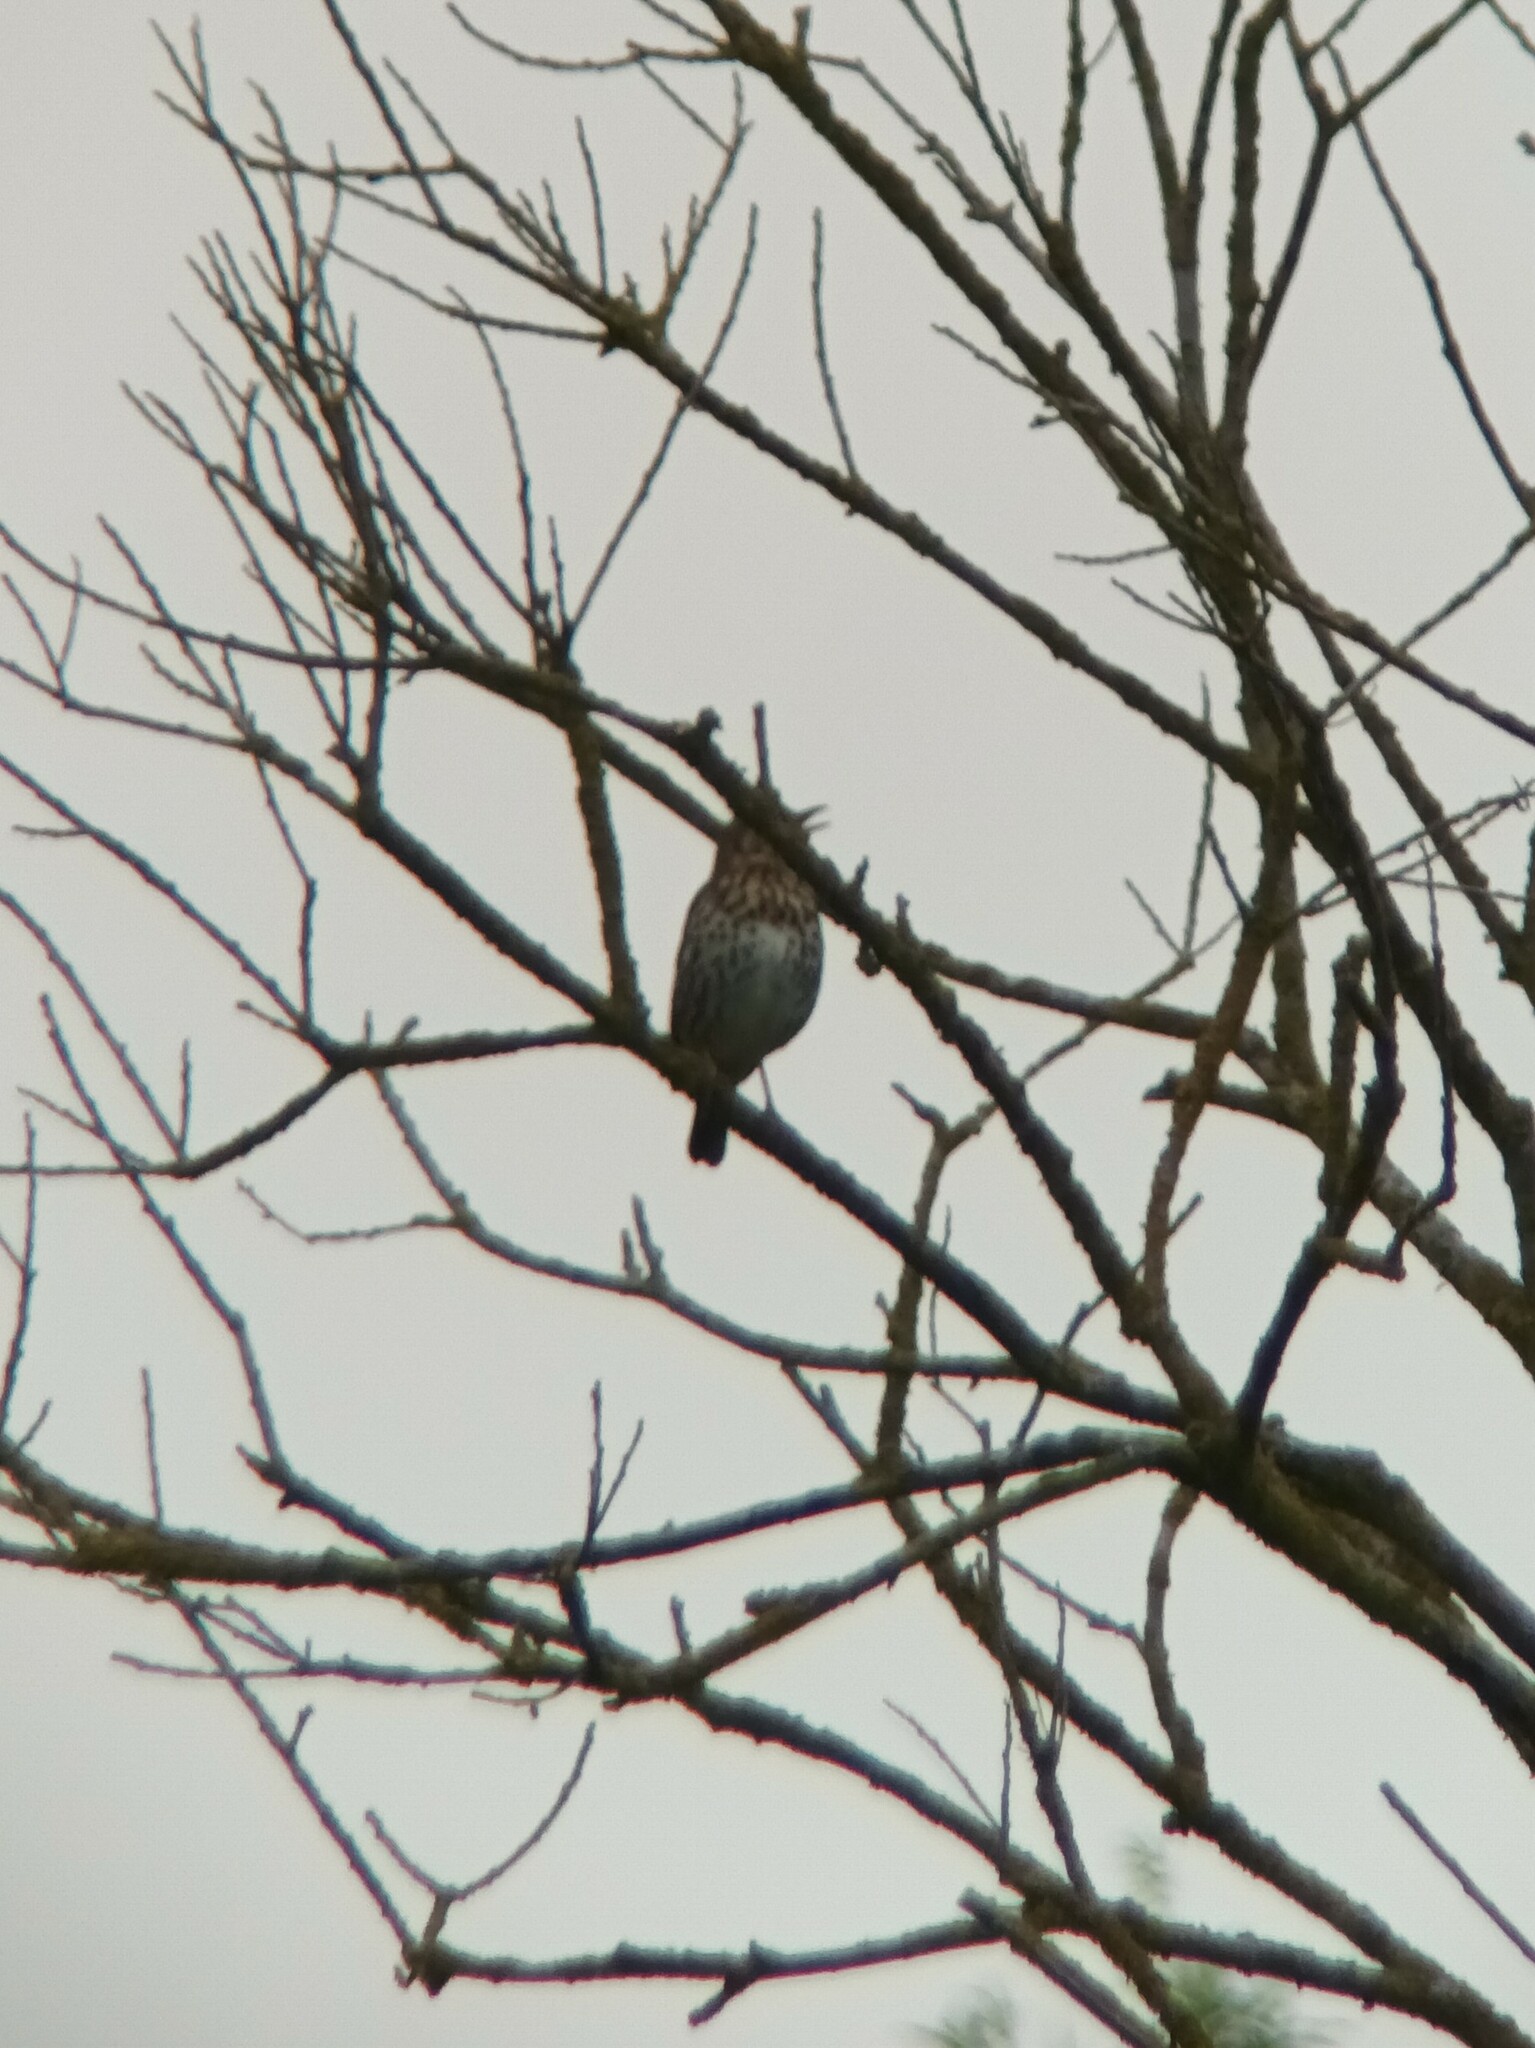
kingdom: Animalia
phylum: Chordata
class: Aves
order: Passeriformes
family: Turdidae
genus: Turdus
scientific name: Turdus philomelos
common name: Song thrush
